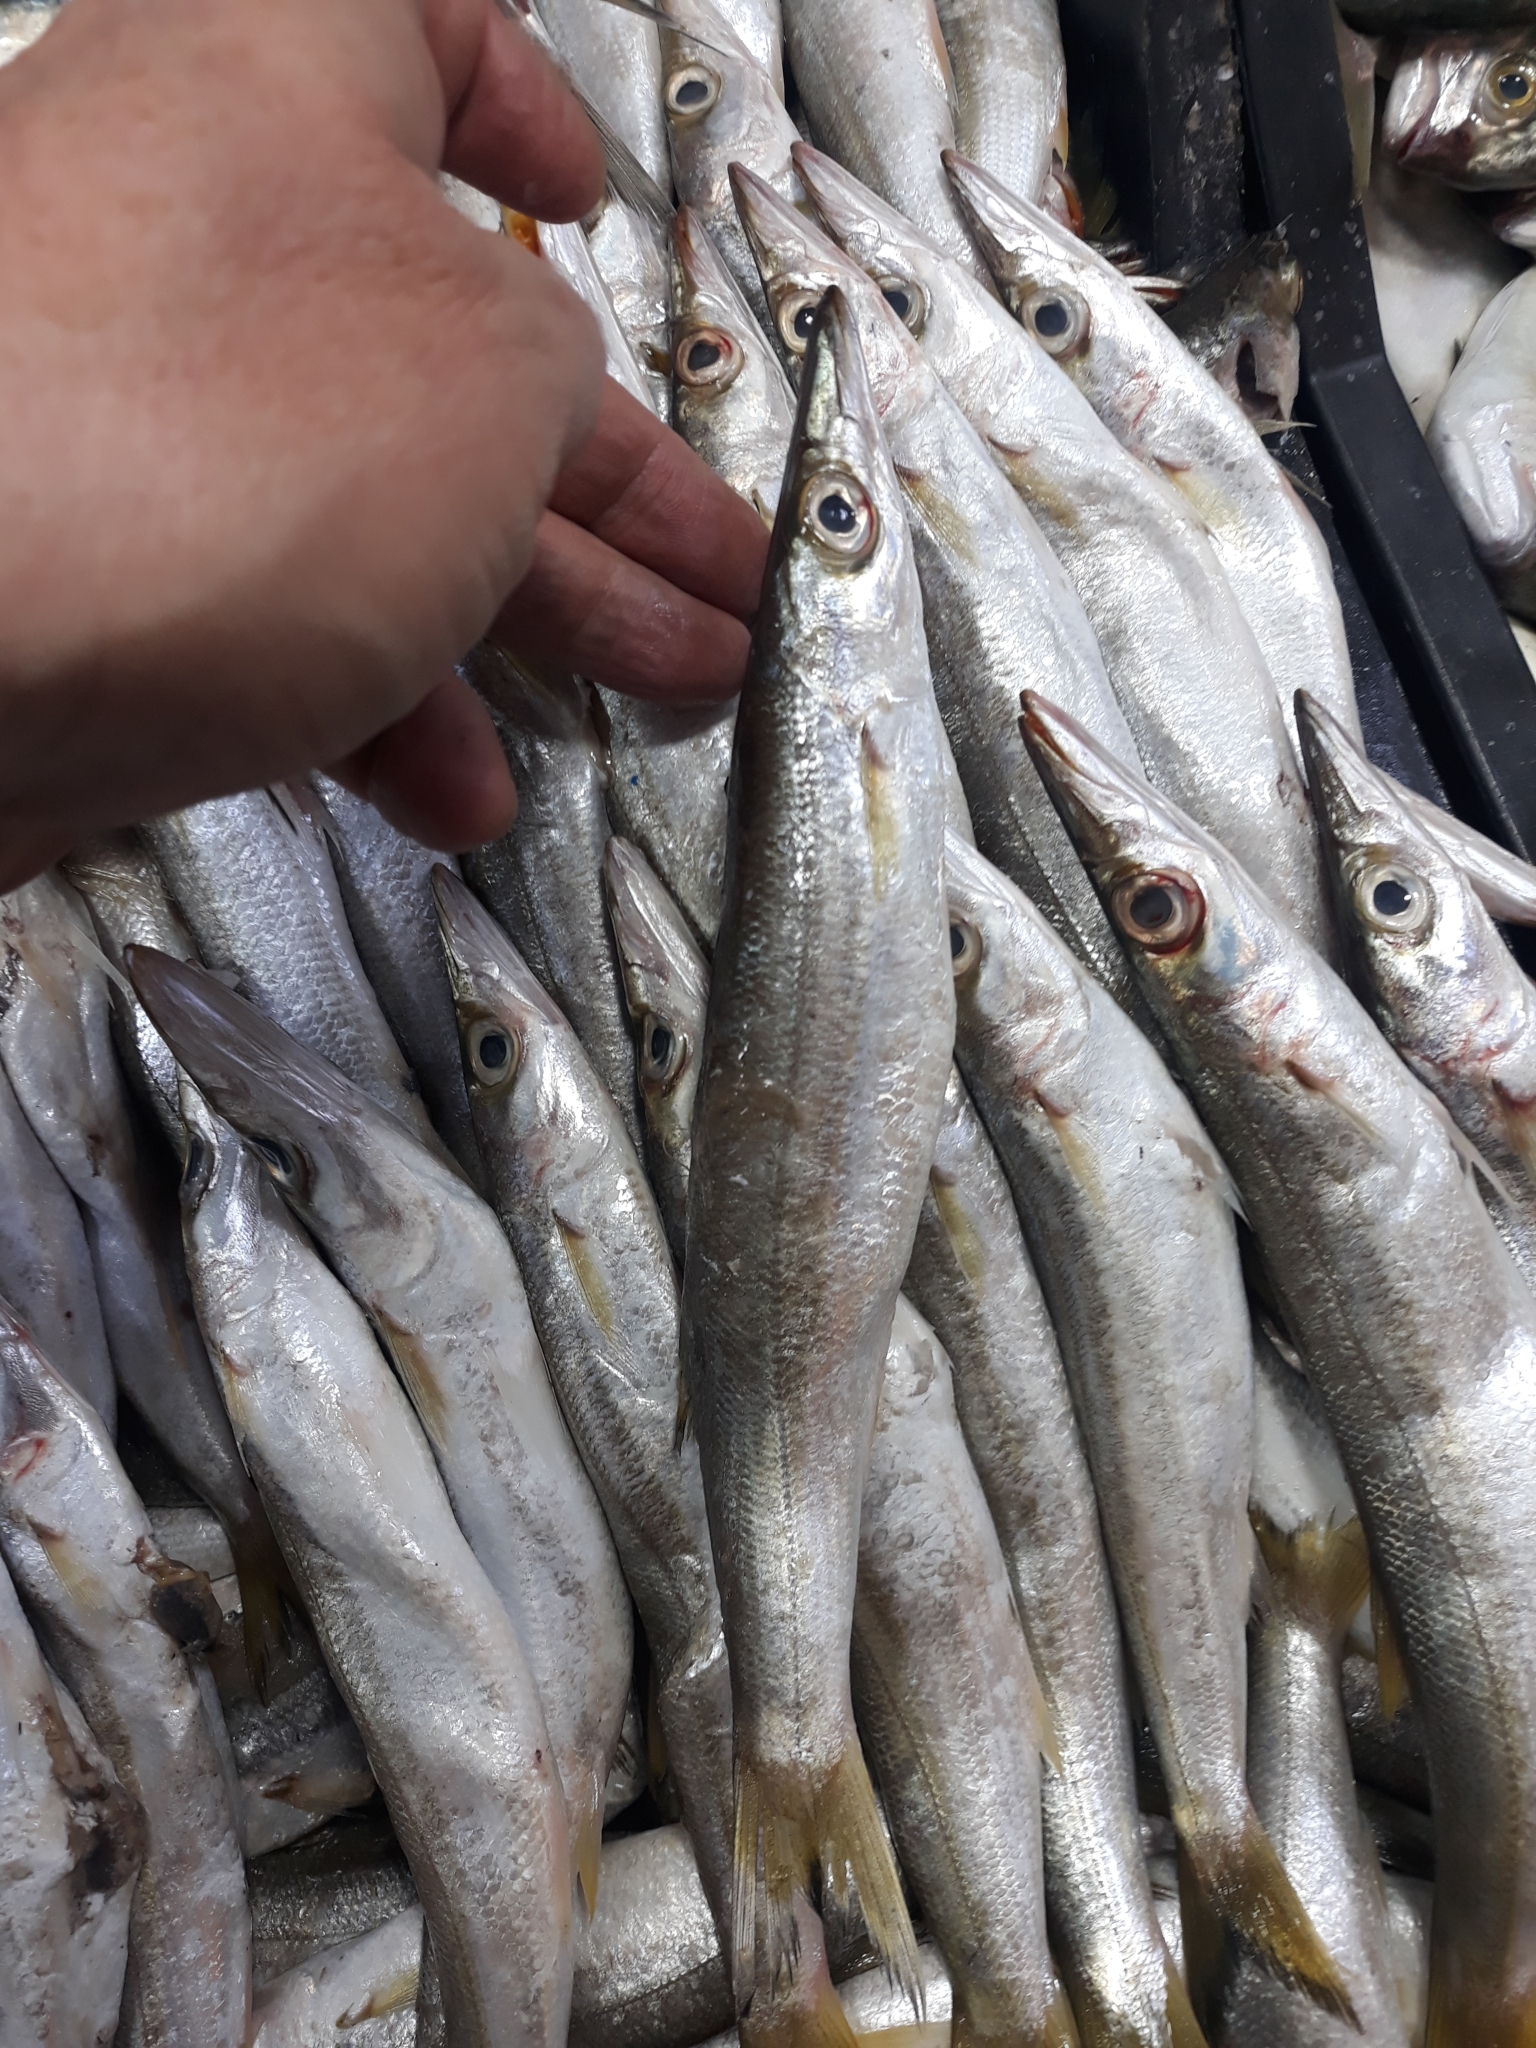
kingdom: Animalia
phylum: Chordata
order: Perciformes
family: Sphyraenidae
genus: Sphyraena
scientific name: Sphyraena sphyraena
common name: European barracuda
